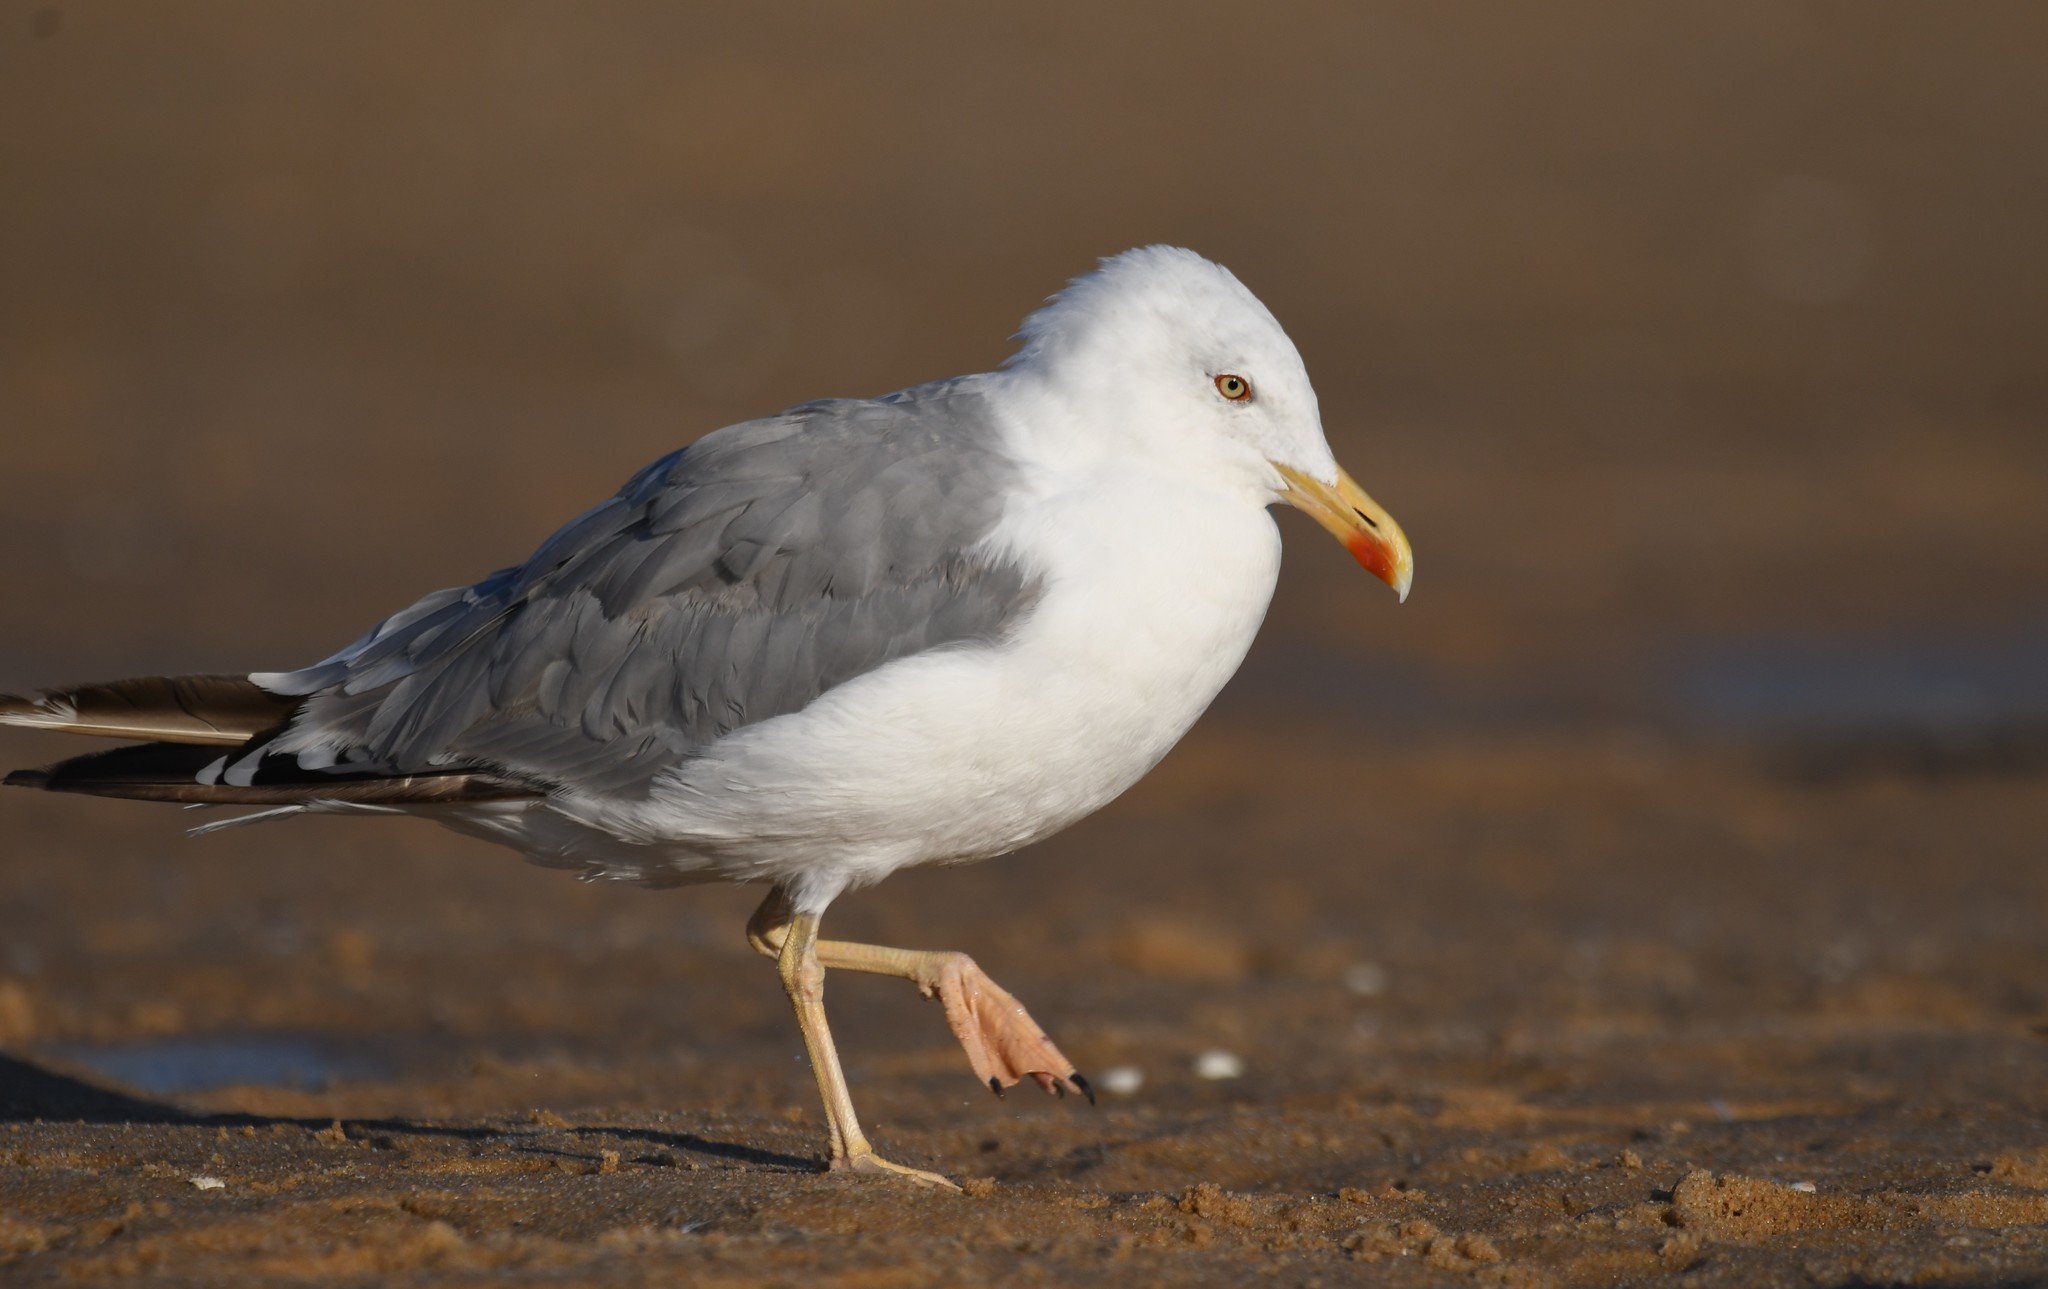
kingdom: Animalia
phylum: Chordata
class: Aves
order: Charadriiformes
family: Laridae
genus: Larus
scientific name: Larus michahellis
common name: Yellow-legged gull
